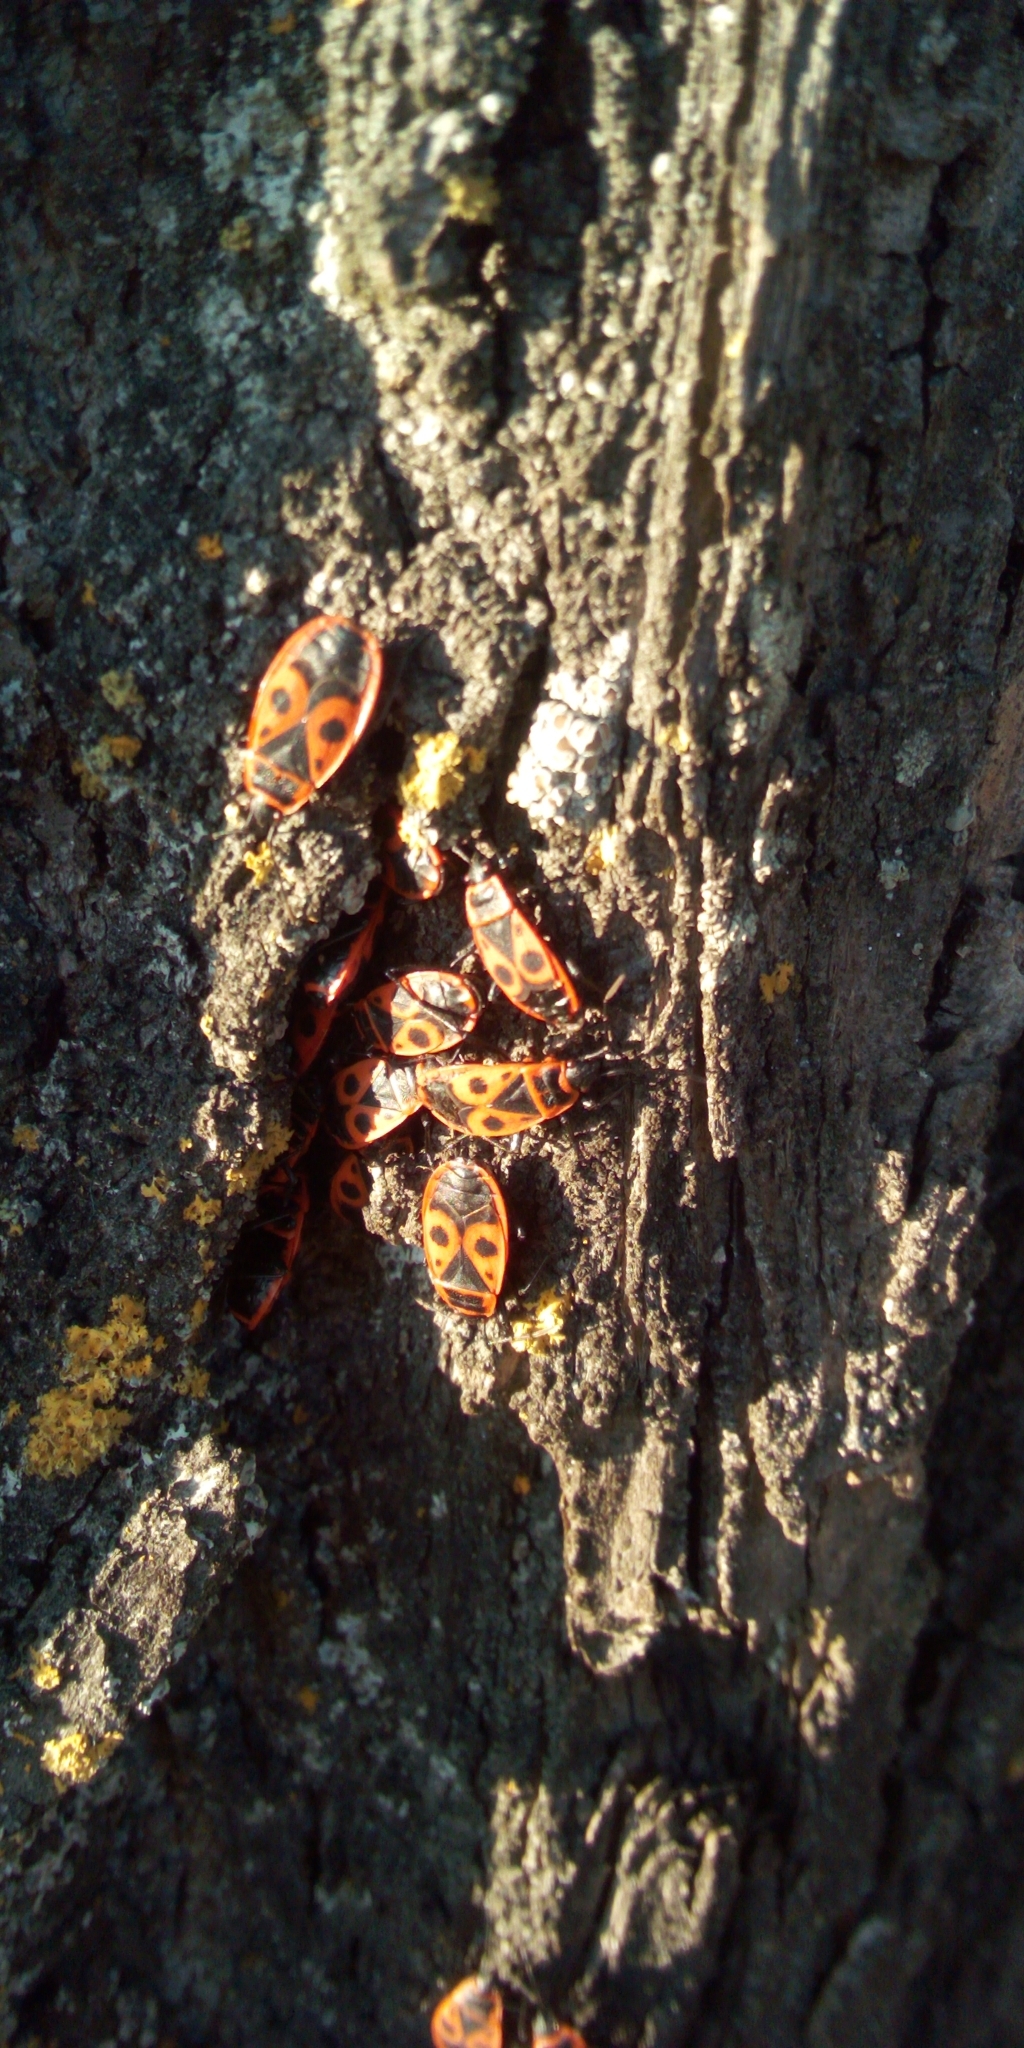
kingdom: Animalia
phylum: Arthropoda
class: Insecta
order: Hemiptera
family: Pyrrhocoridae
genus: Pyrrhocoris
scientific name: Pyrrhocoris apterus
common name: Firebug
